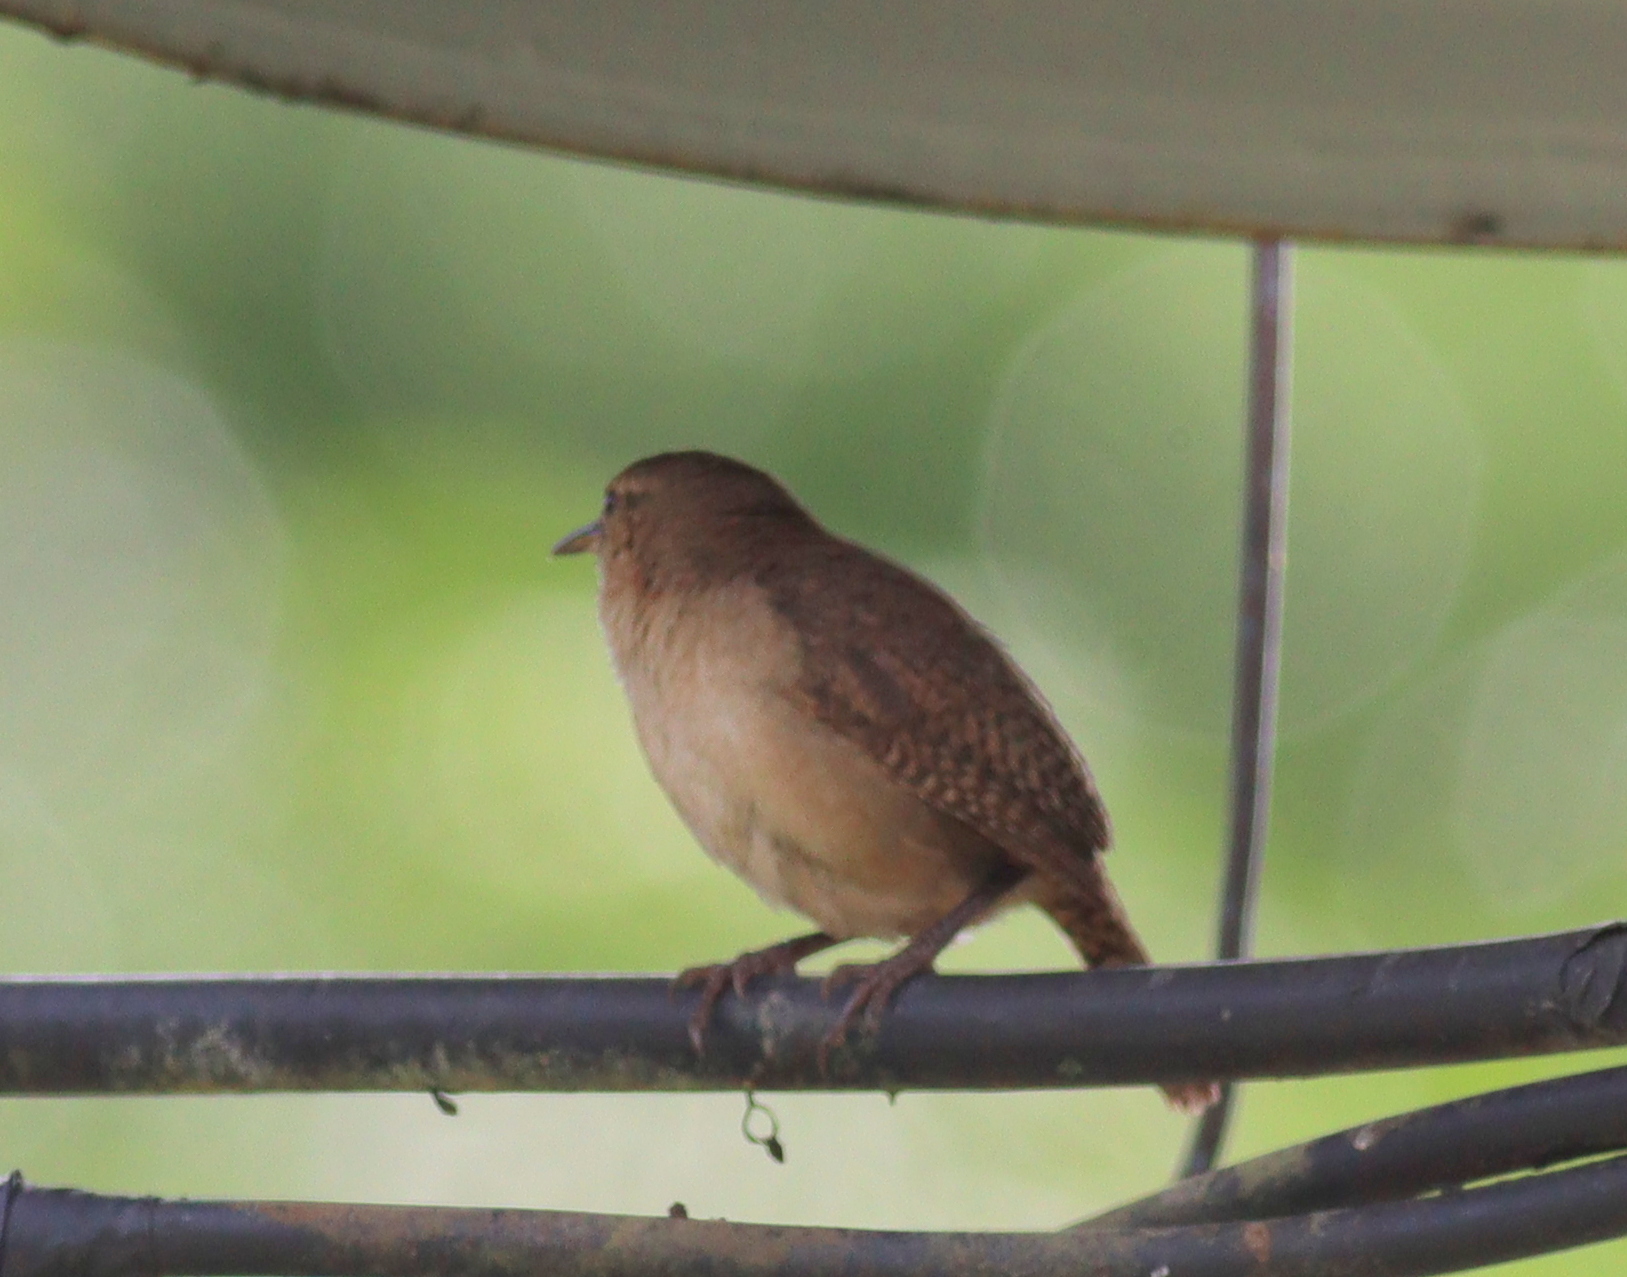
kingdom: Animalia
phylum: Chordata
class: Aves
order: Passeriformes
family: Troglodytidae
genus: Troglodytes
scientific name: Troglodytes aedon
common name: House wren
